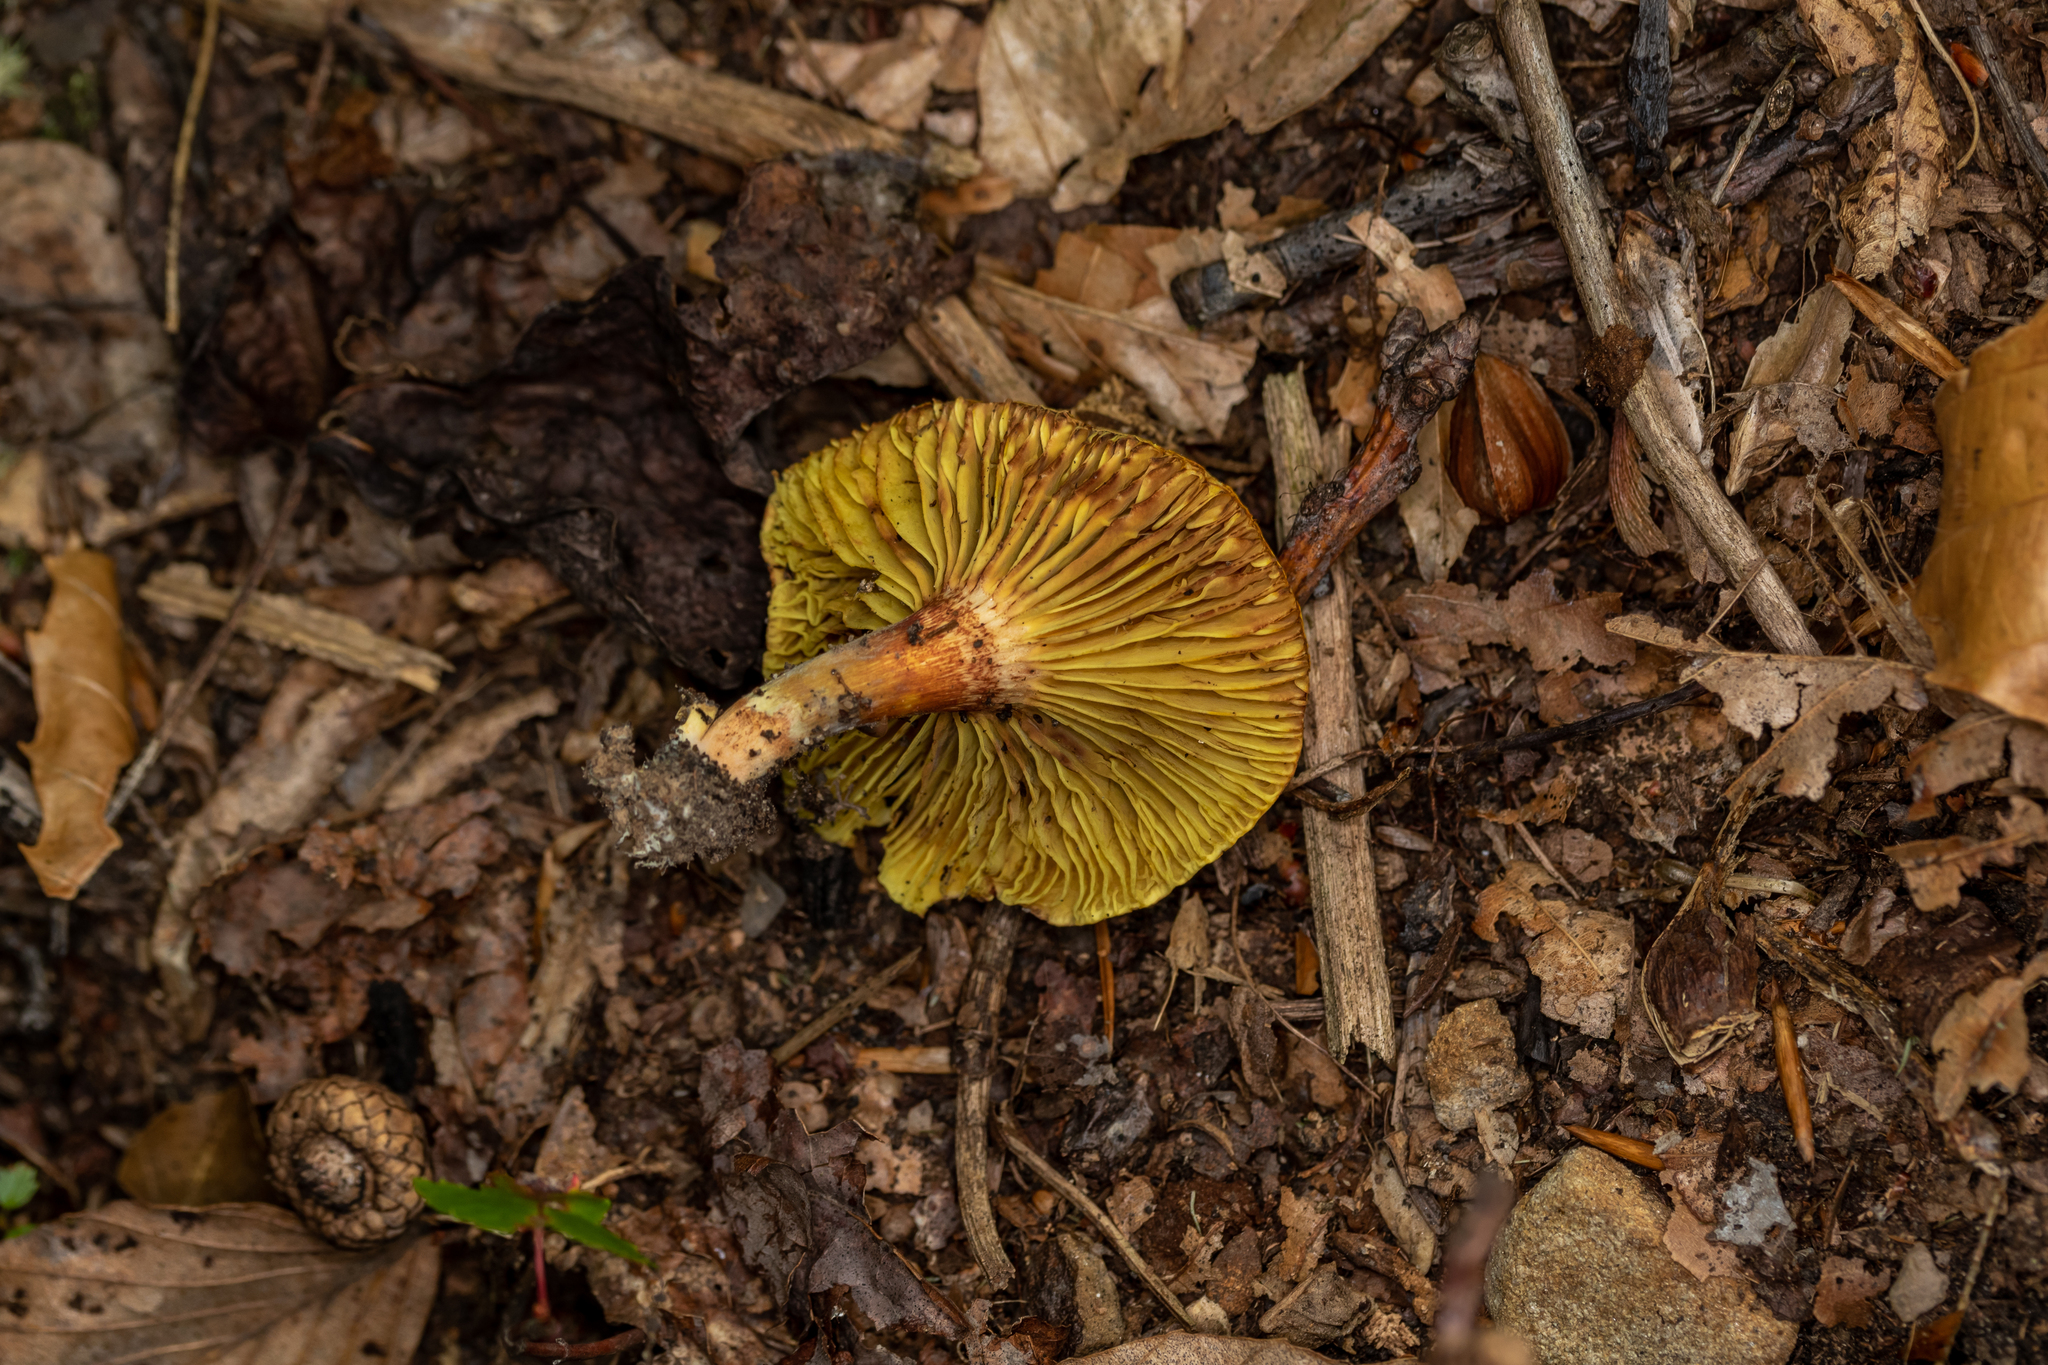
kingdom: Fungi
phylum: Basidiomycota
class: Agaricomycetes
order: Boletales
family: Boletaceae
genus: Phylloporus
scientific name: Phylloporus leucomycelinus
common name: Gilled bolete
